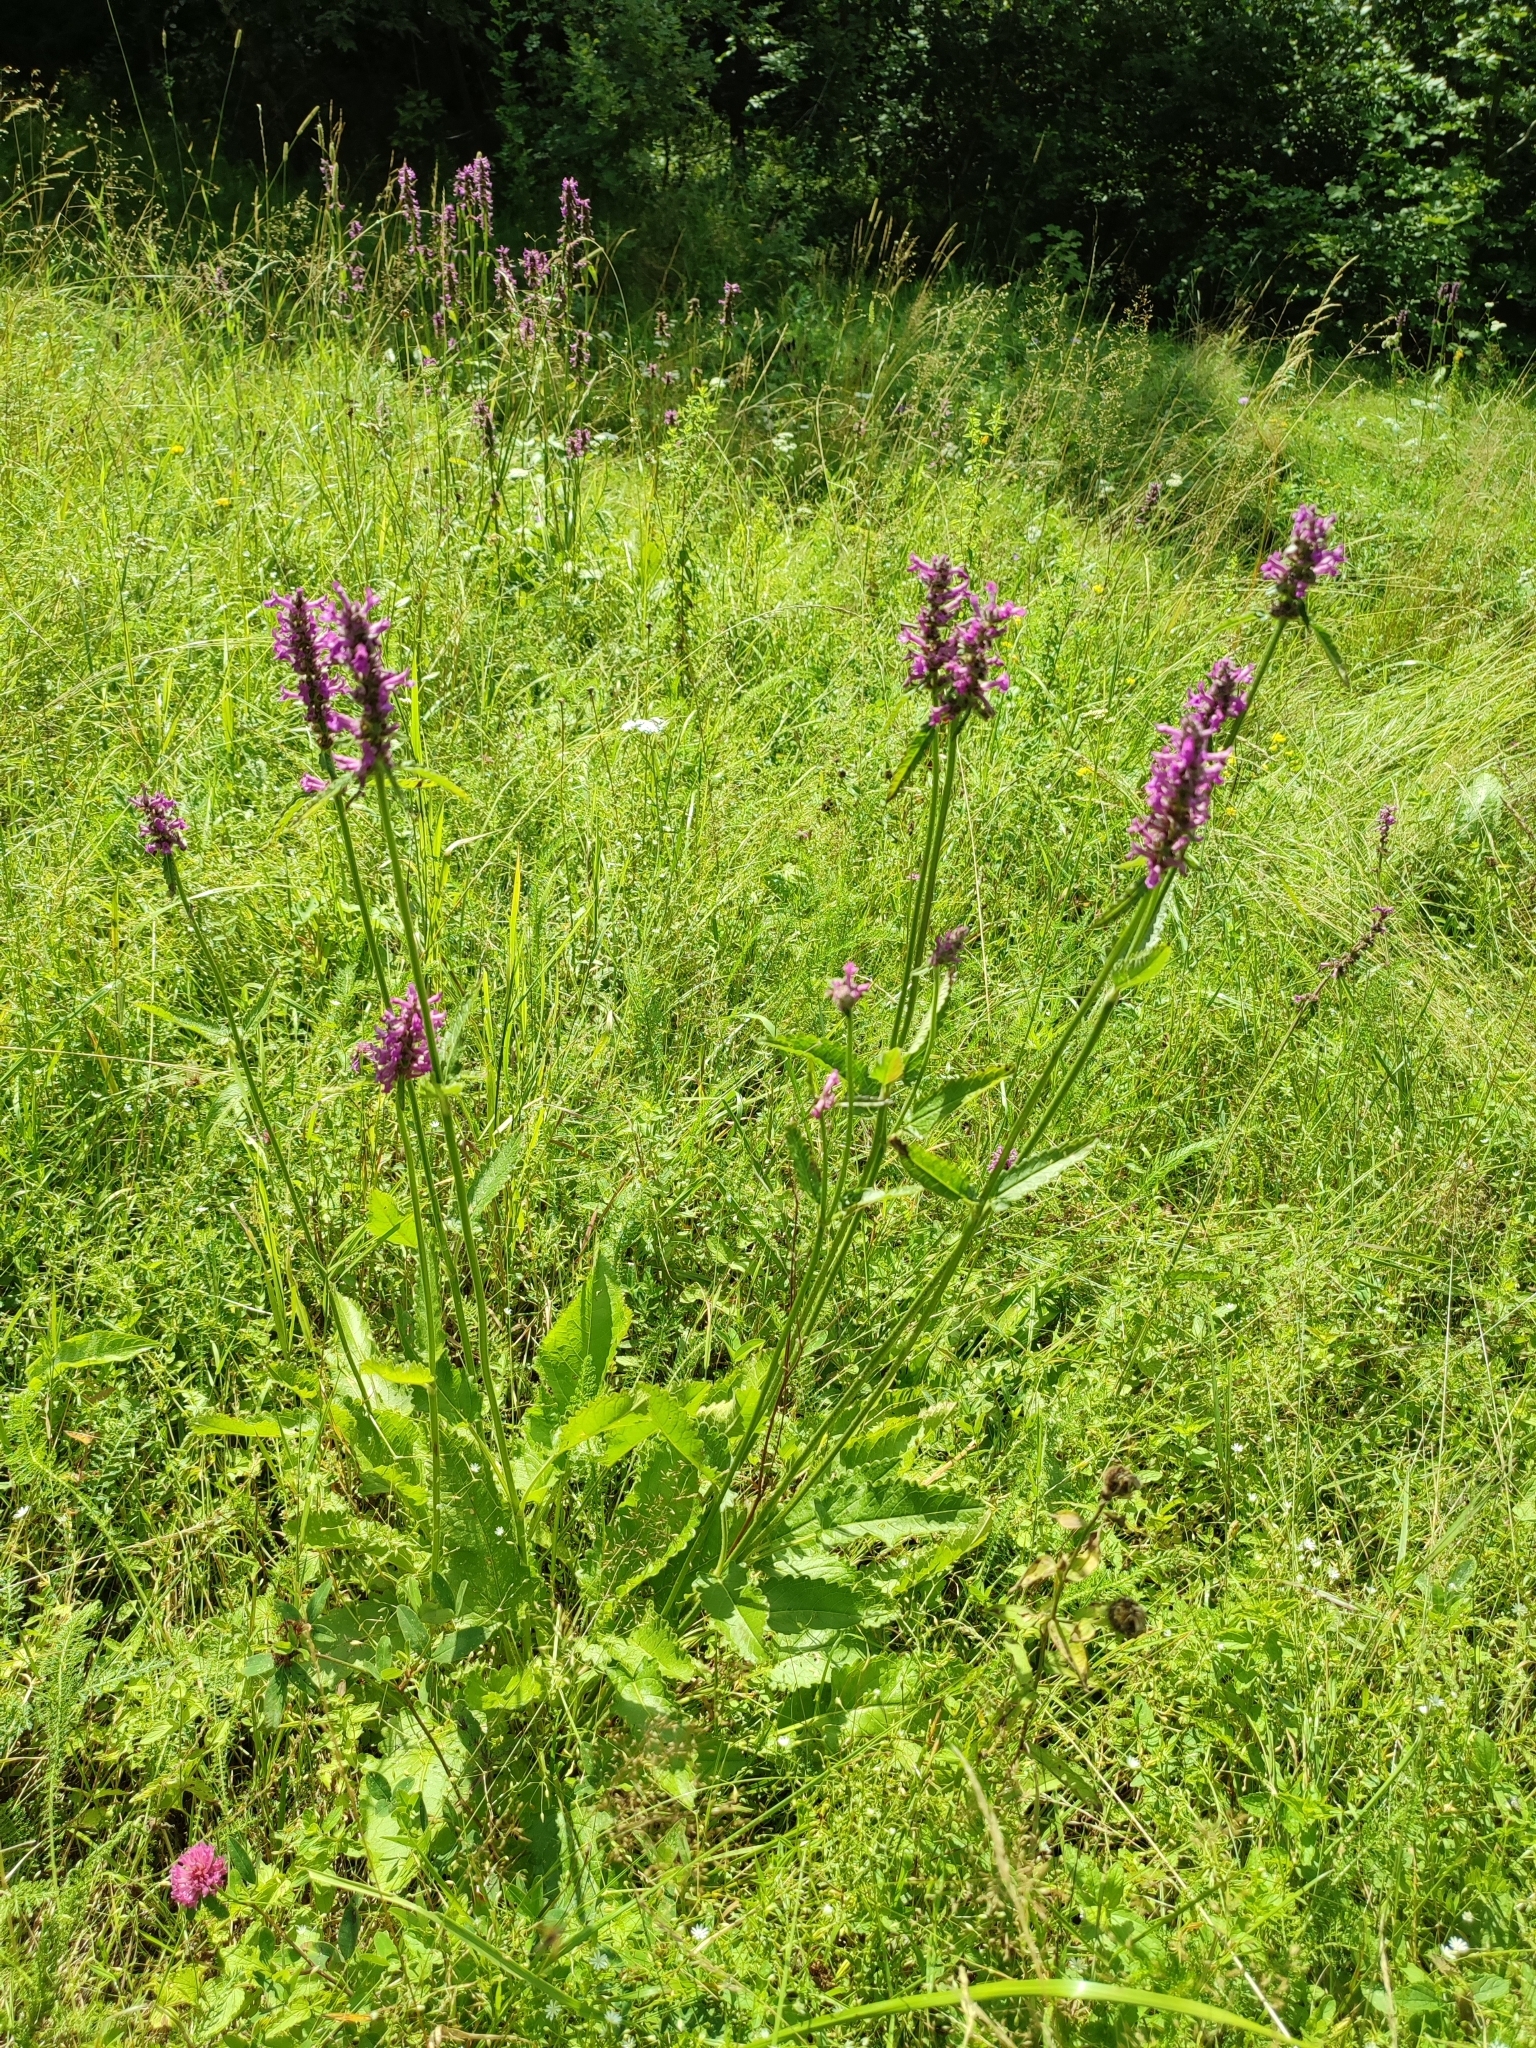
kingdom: Plantae
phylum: Tracheophyta
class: Magnoliopsida
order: Lamiales
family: Lamiaceae
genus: Betonica
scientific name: Betonica officinalis
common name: Bishop's-wort
